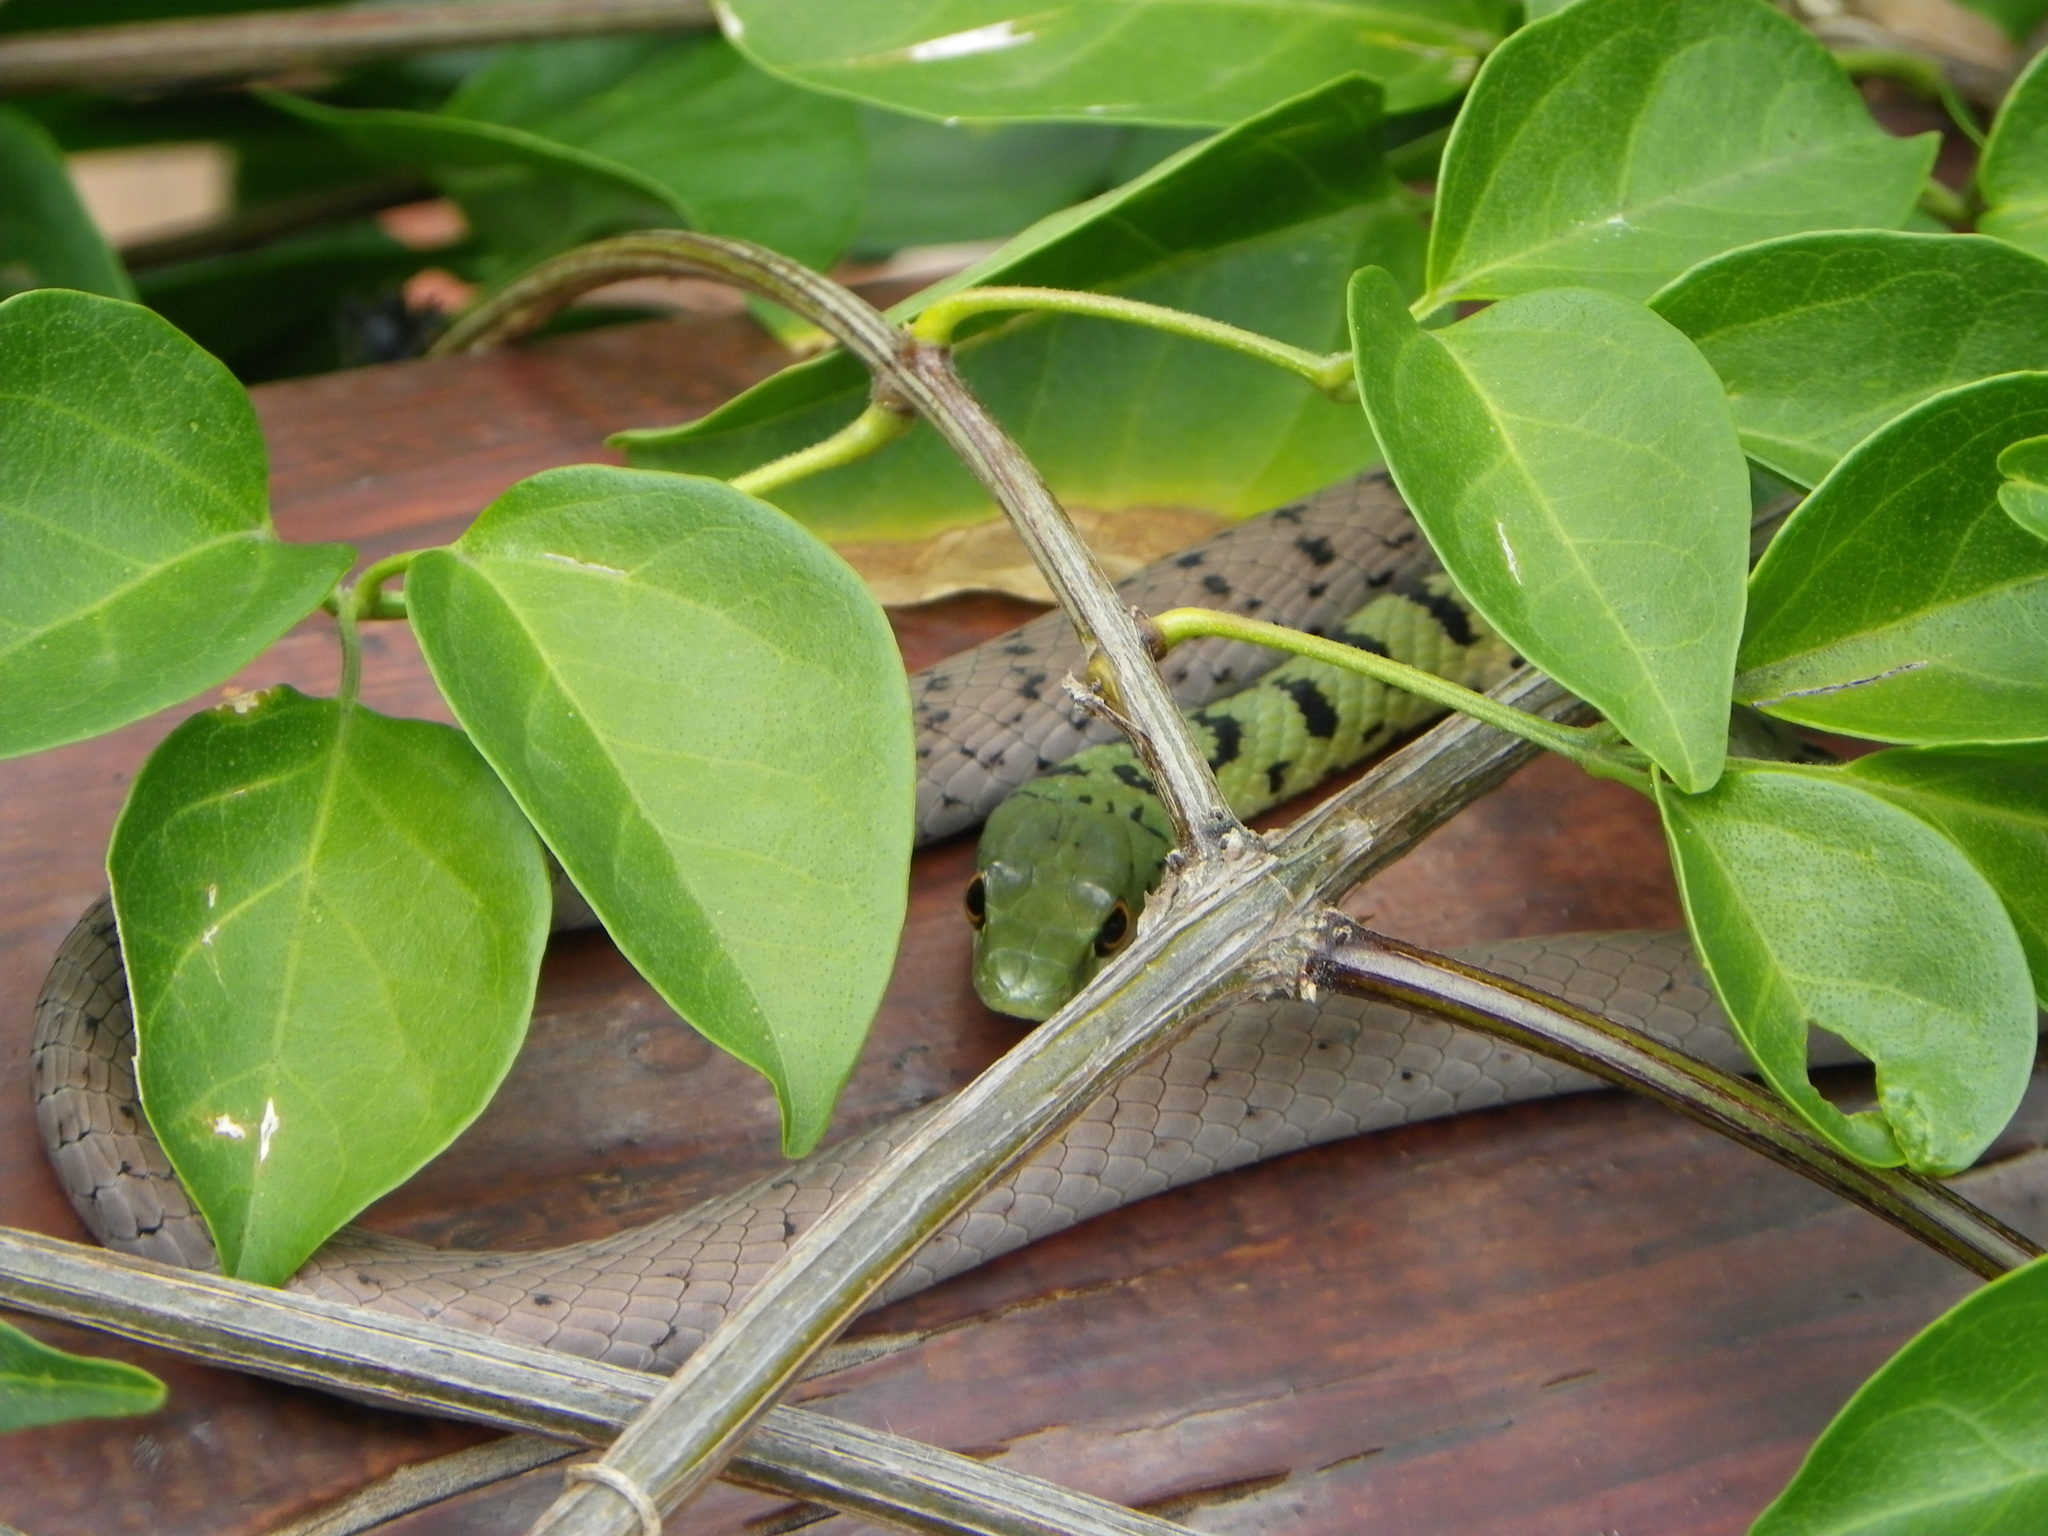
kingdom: Animalia
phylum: Chordata
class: Squamata
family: Colubridae
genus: Philothamnus
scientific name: Philothamnus semivariegatus
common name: Spotted bush snake
